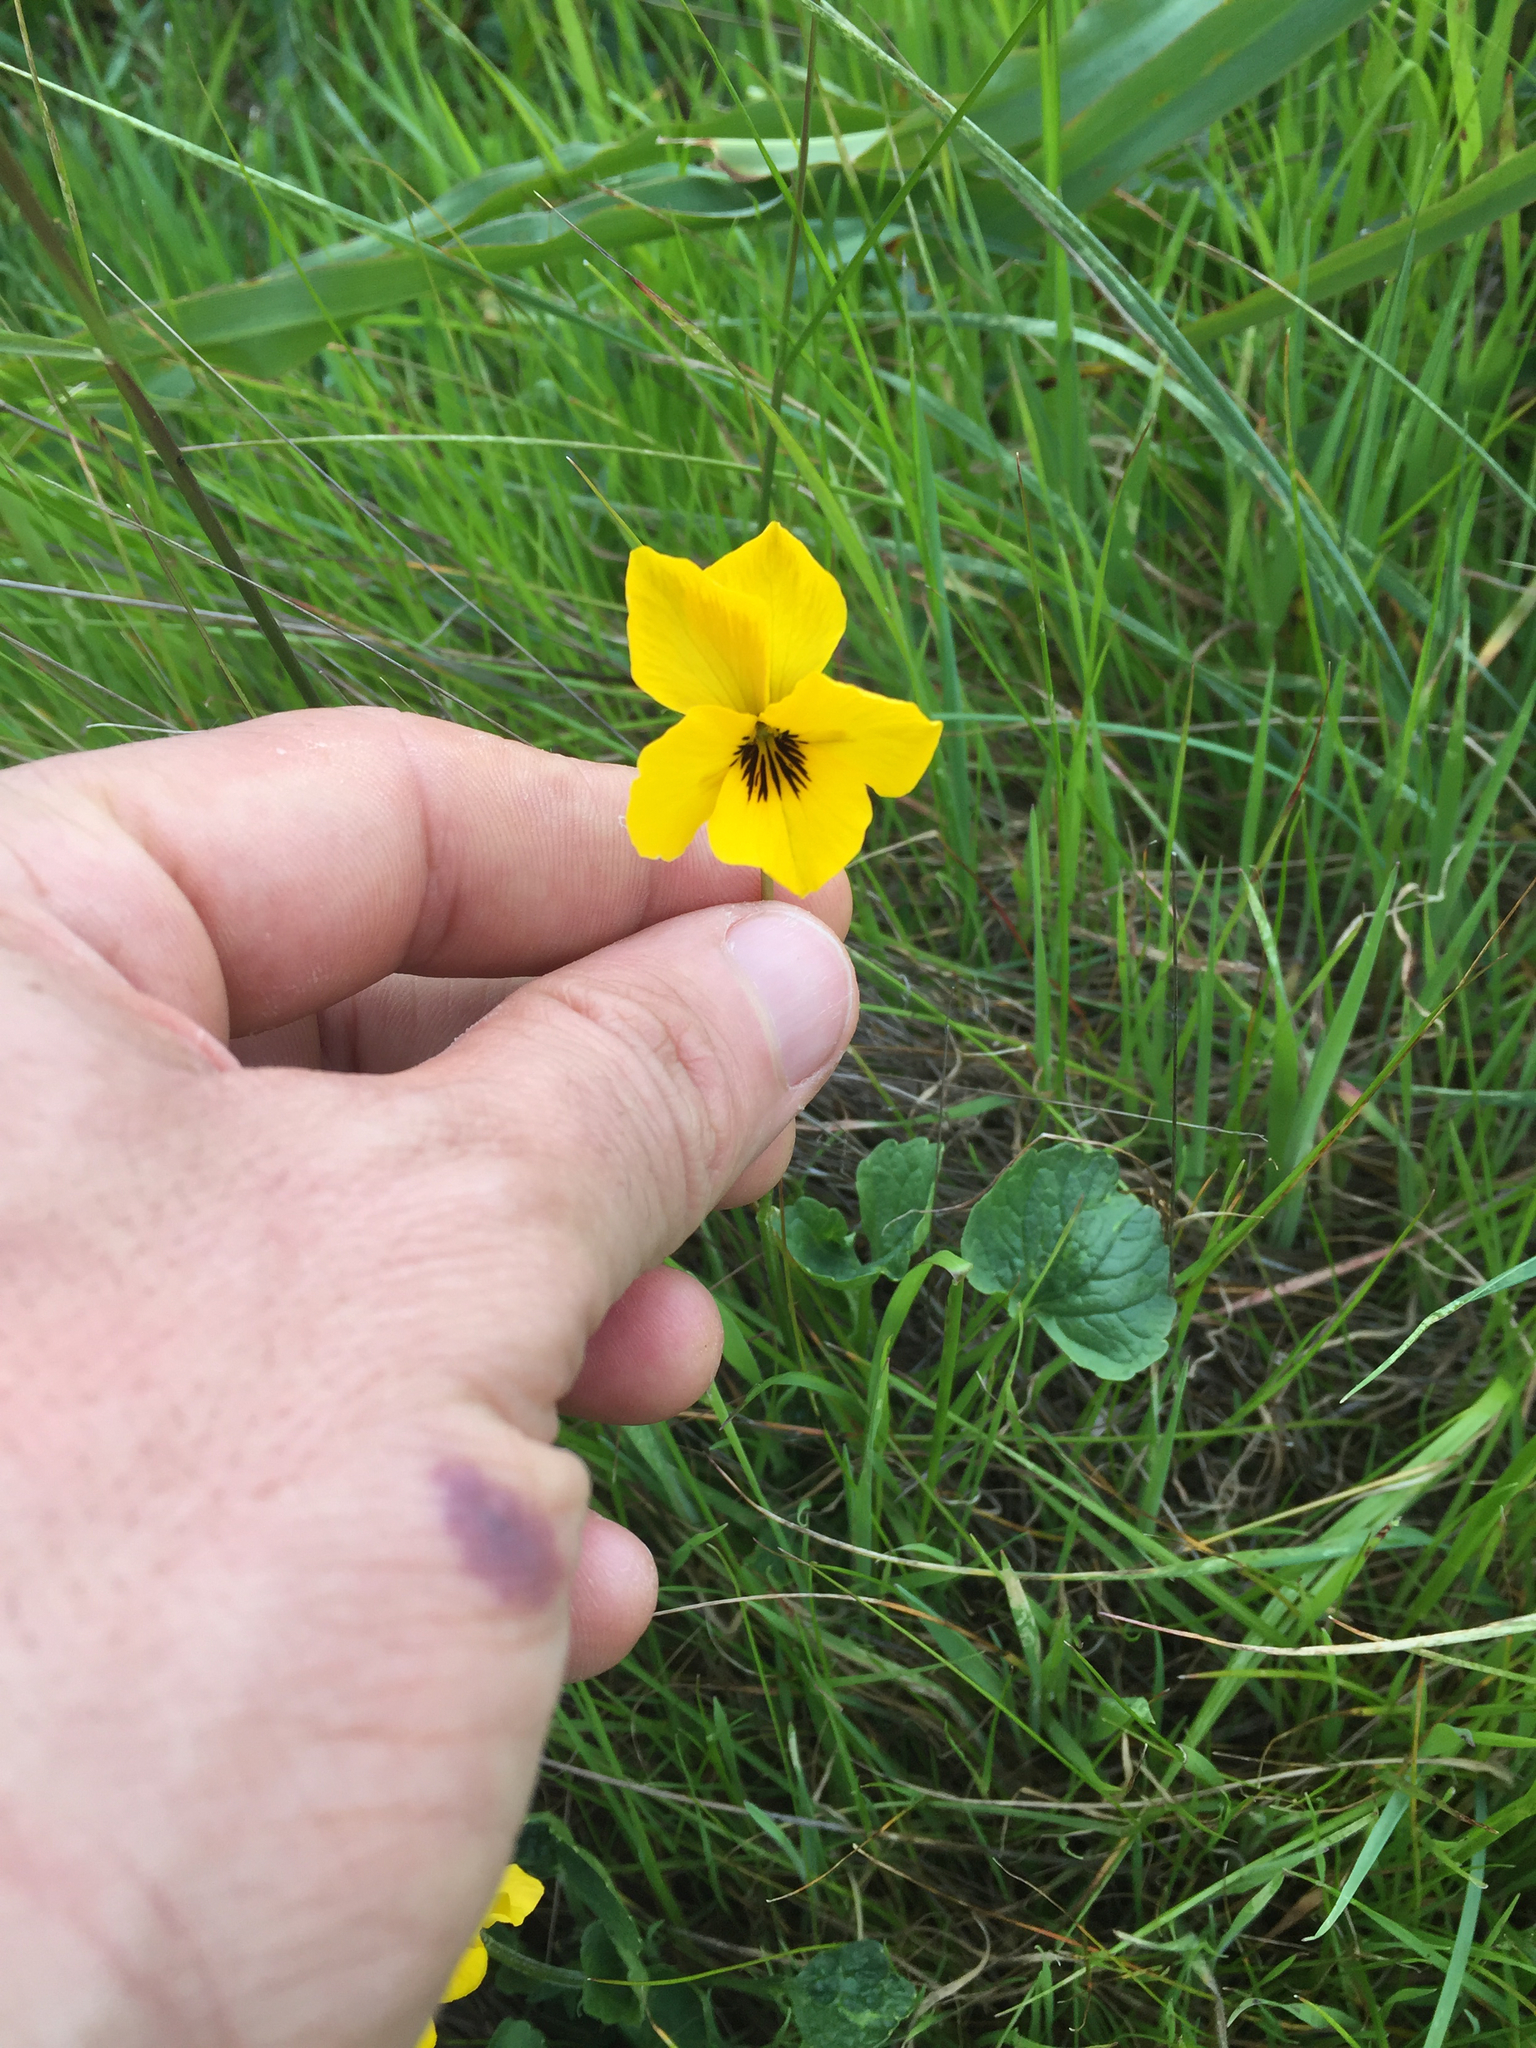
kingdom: Plantae
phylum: Tracheophyta
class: Magnoliopsida
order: Malpighiales
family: Violaceae
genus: Viola
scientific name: Viola pedunculata
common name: California golden violet
